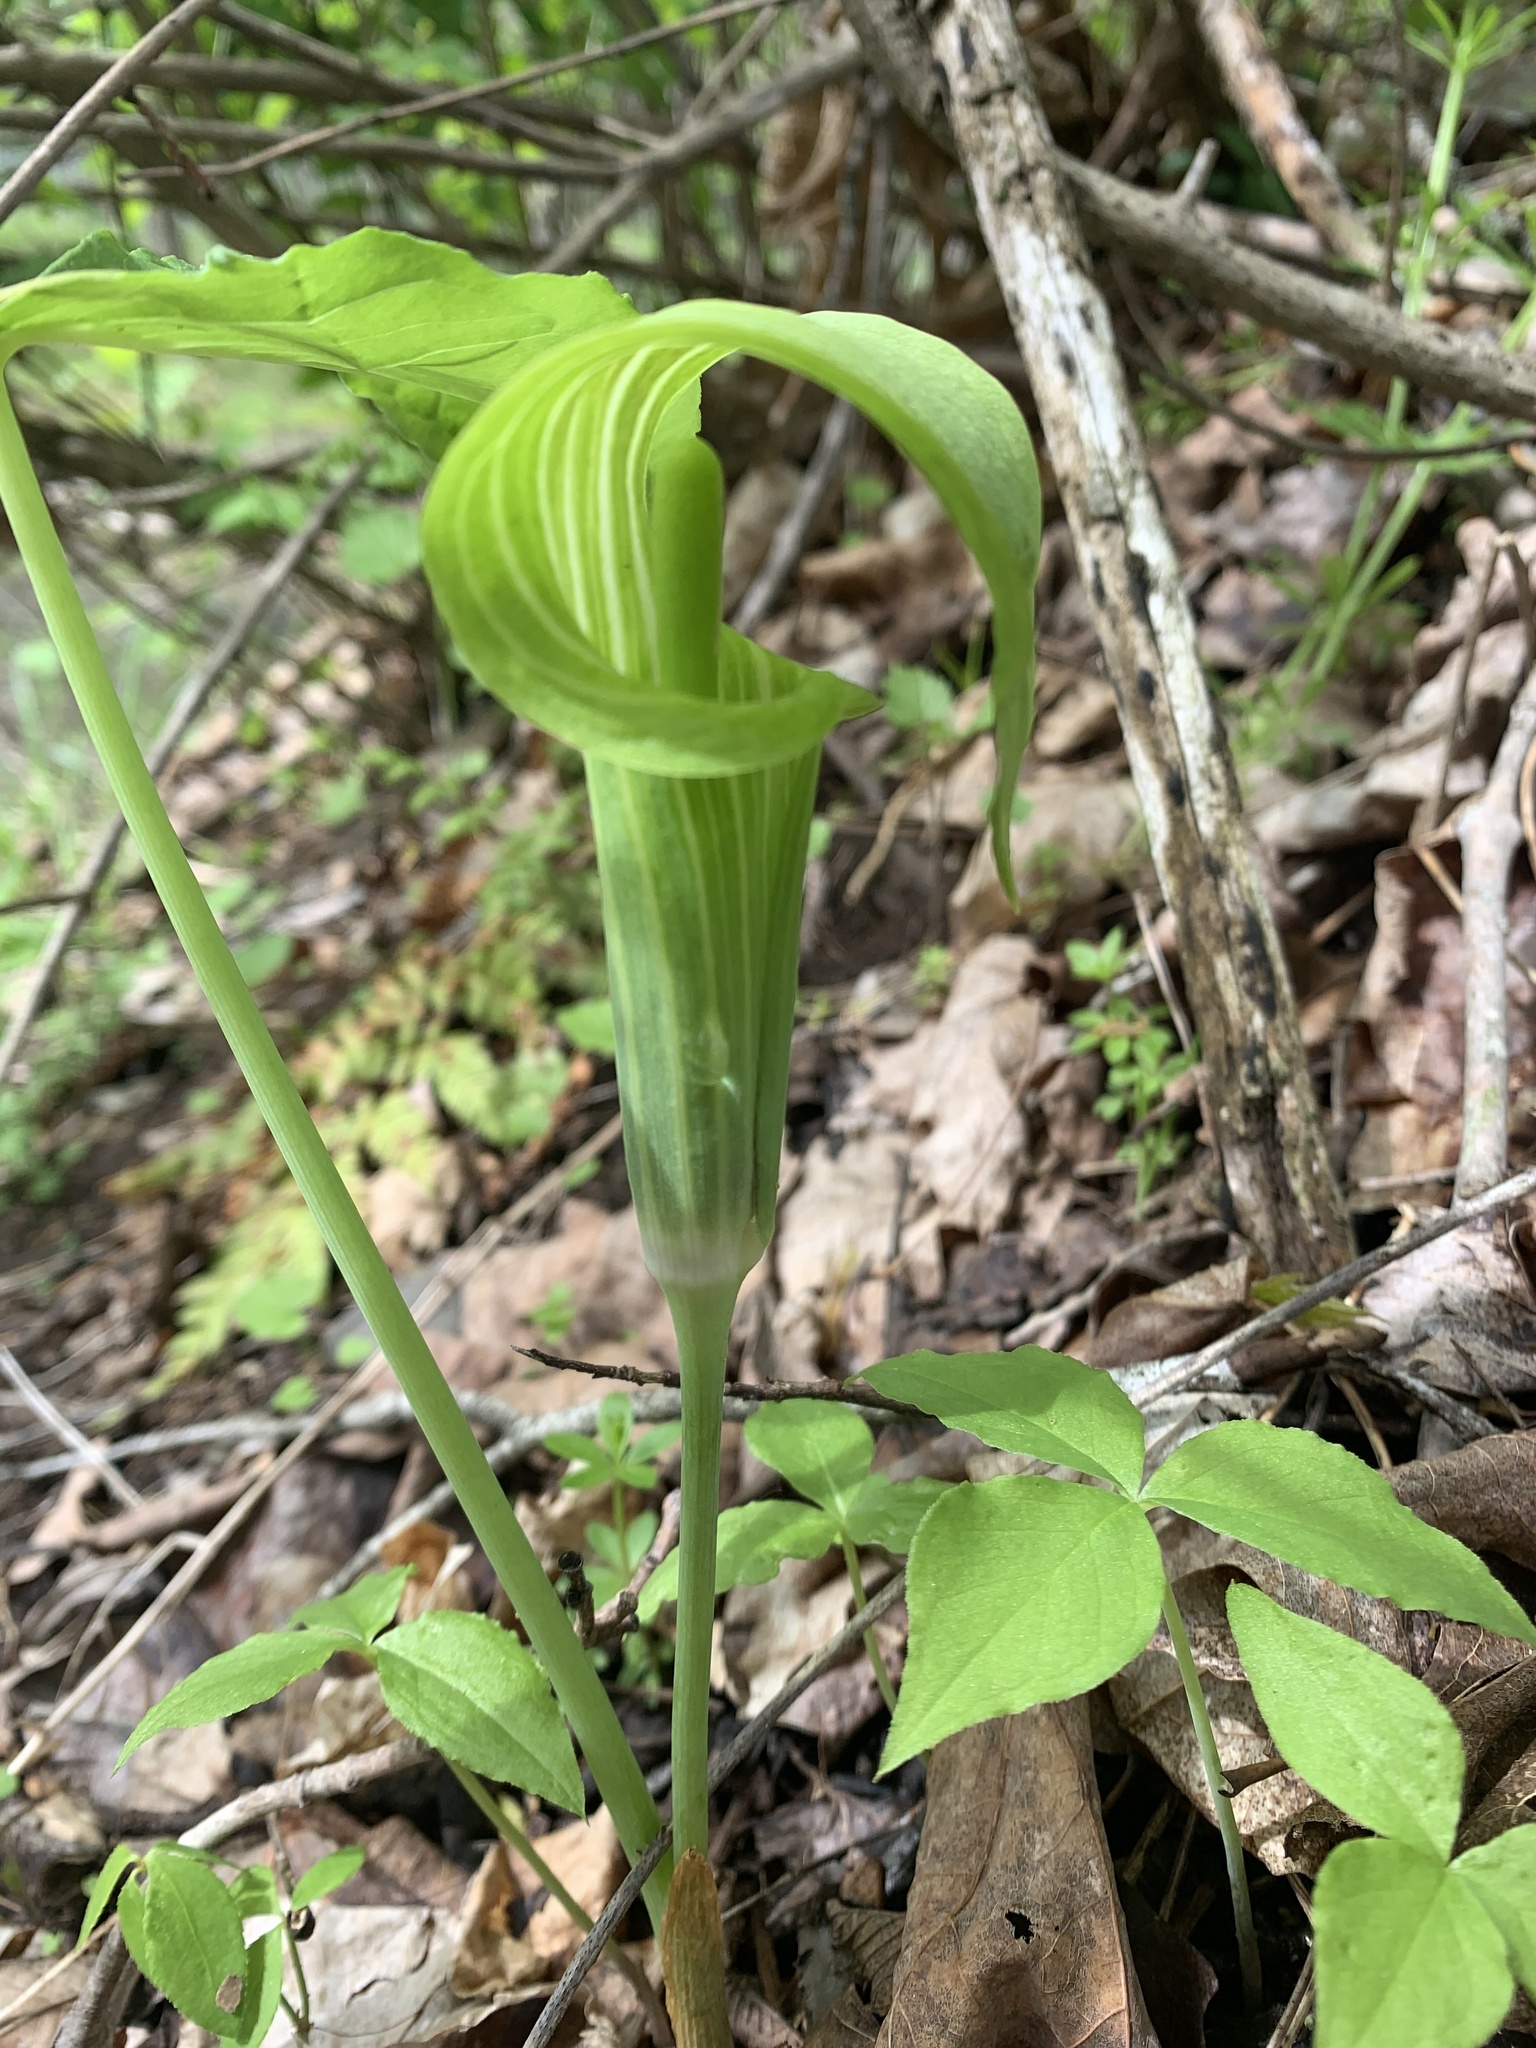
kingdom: Plantae
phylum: Tracheophyta
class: Liliopsida
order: Alismatales
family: Araceae
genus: Arisaema
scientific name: Arisaema triphyllum
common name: Jack-in-the-pulpit
